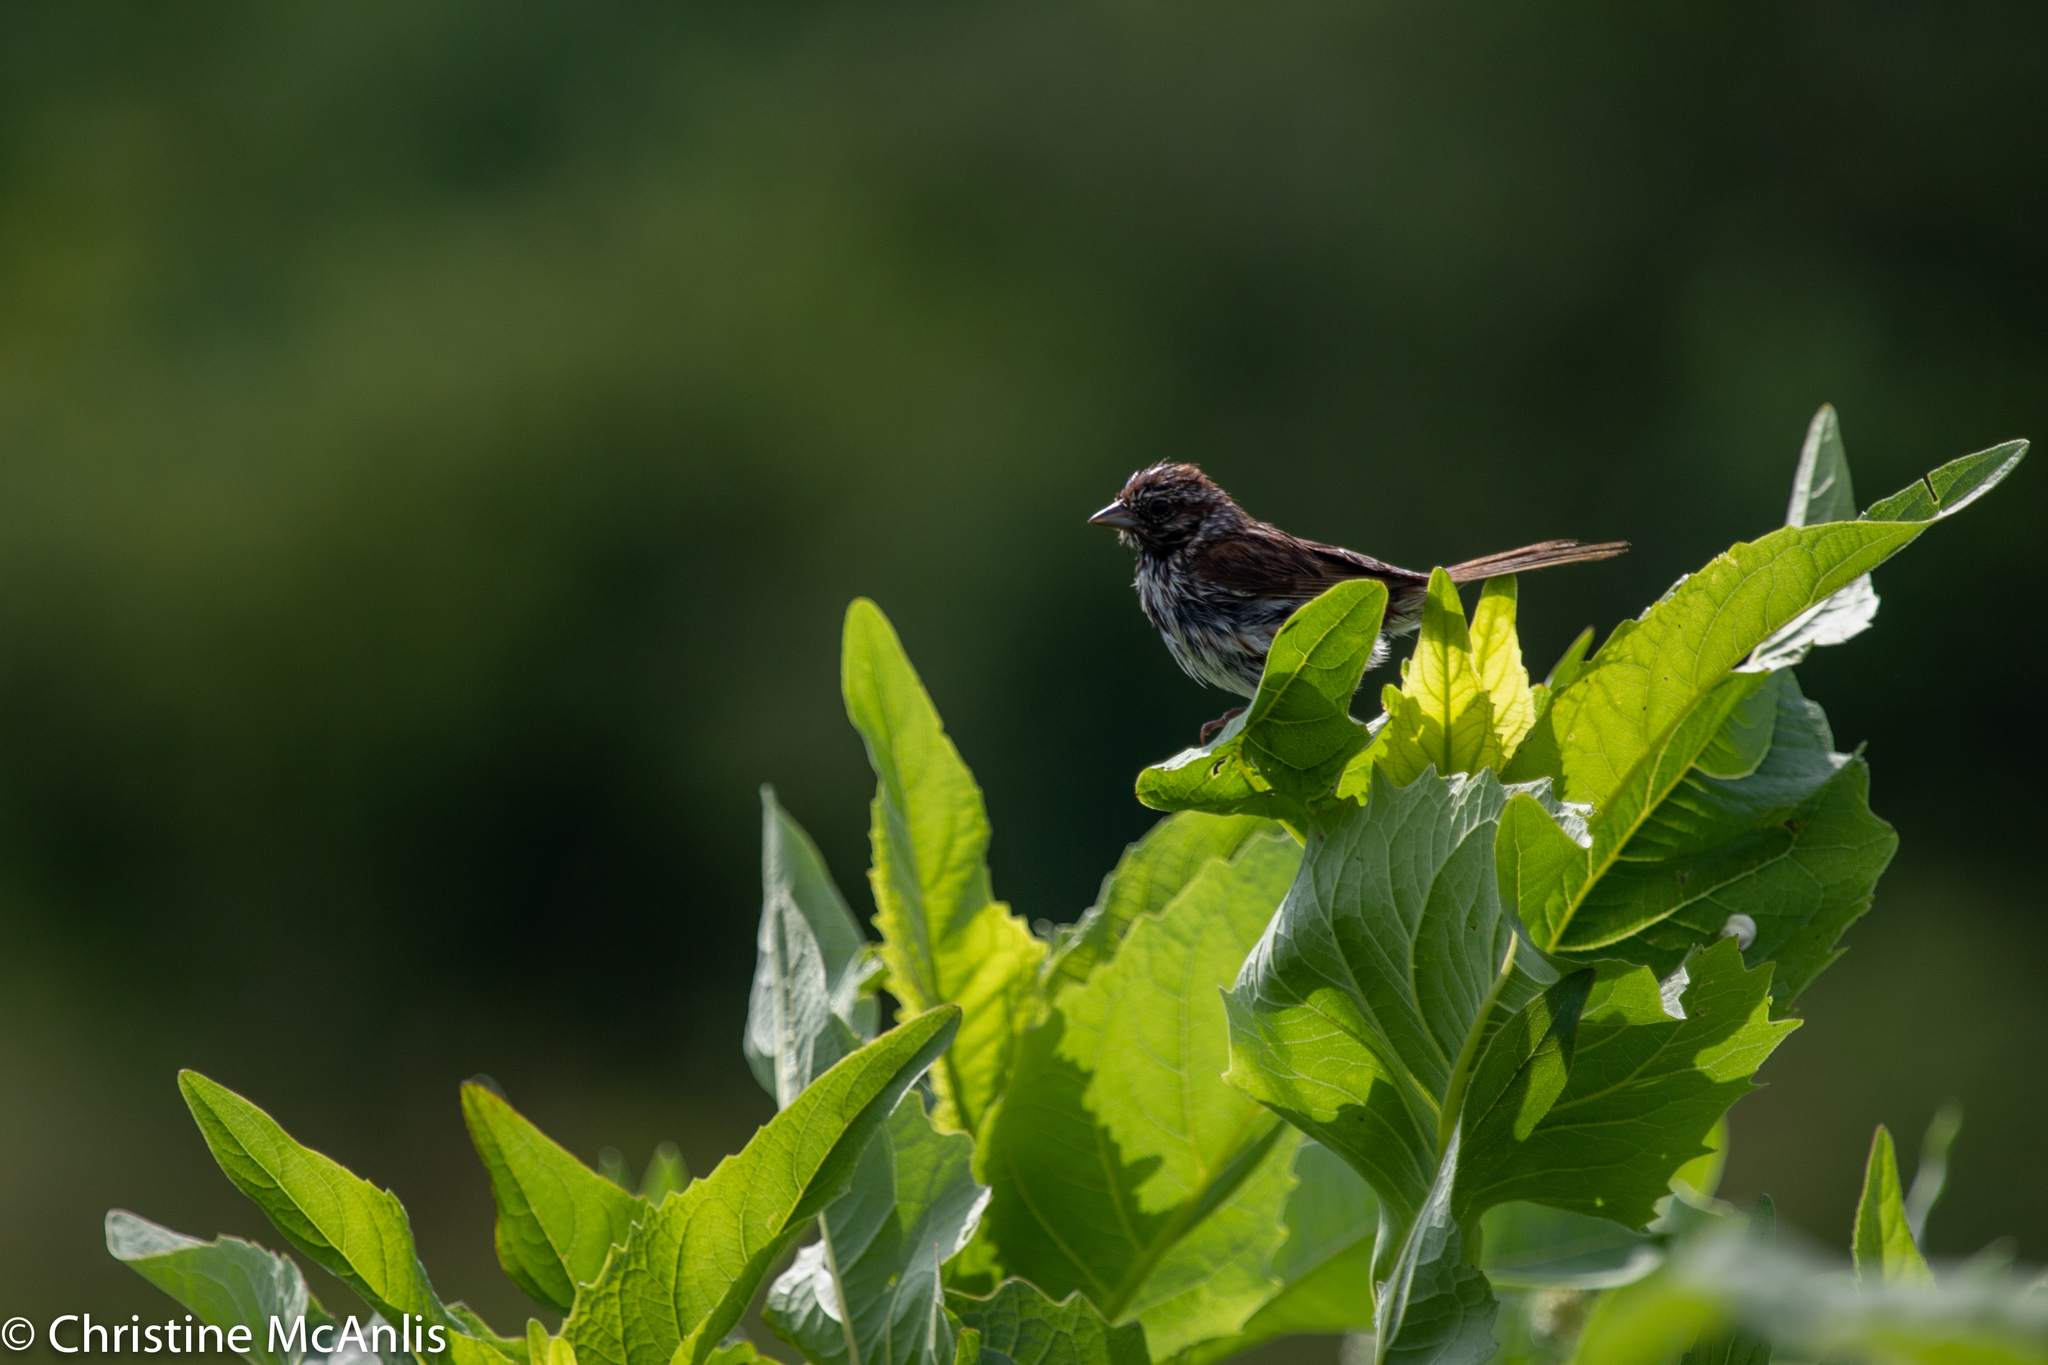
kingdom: Animalia
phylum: Chordata
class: Aves
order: Passeriformes
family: Passerellidae
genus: Melospiza
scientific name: Melospiza melodia
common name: Song sparrow
